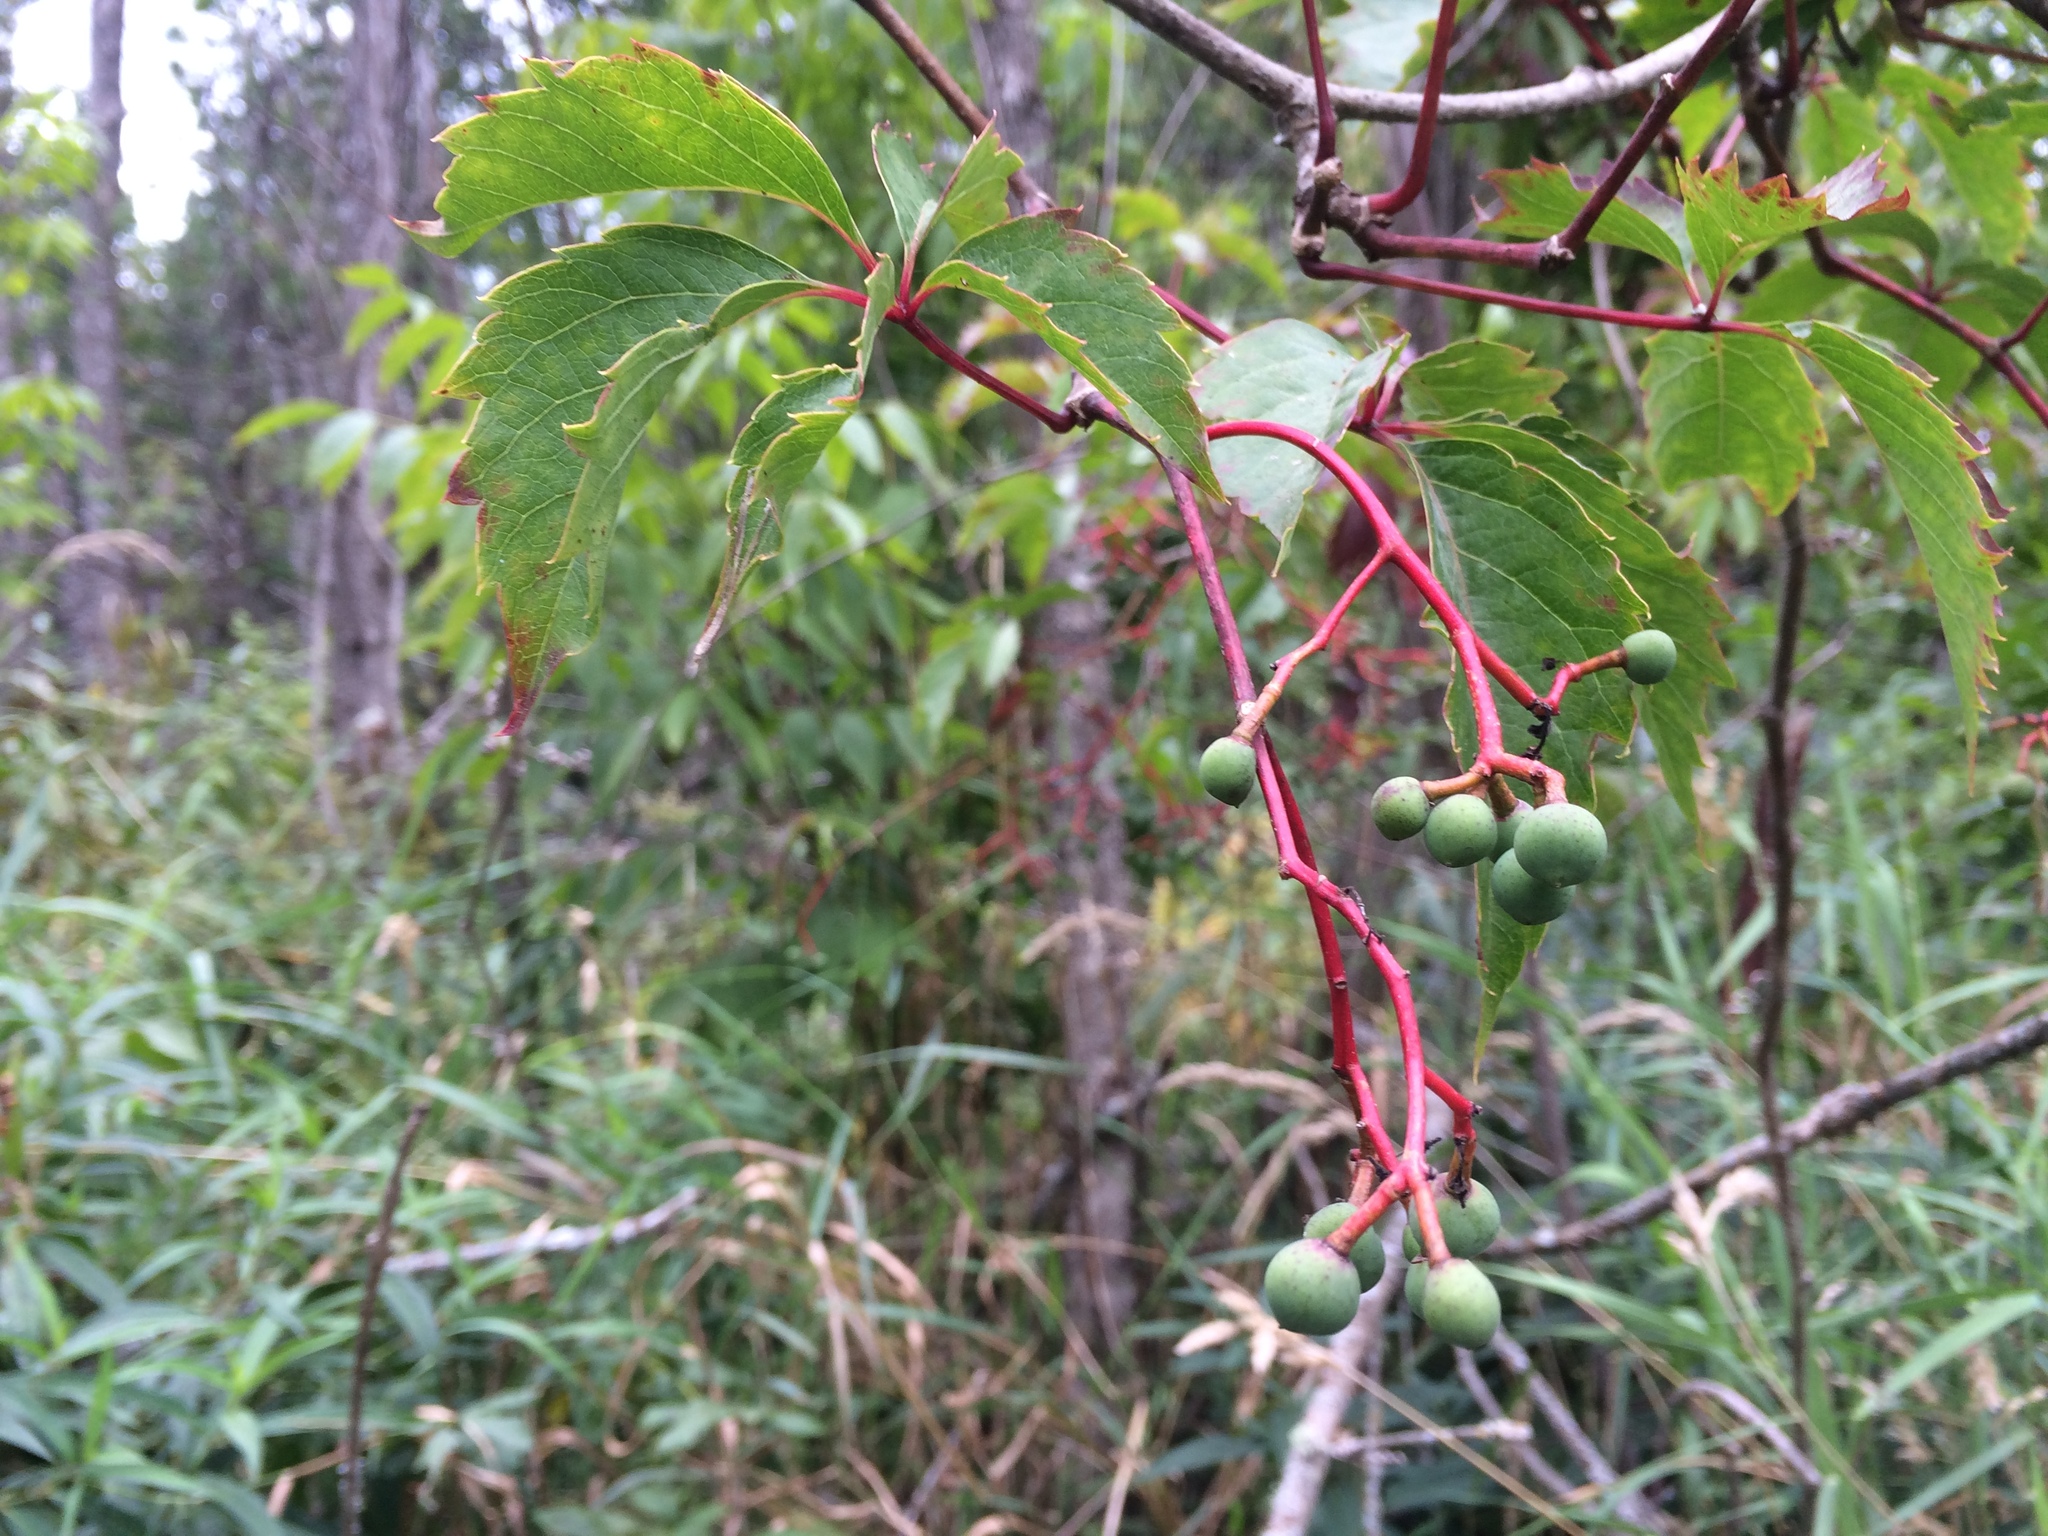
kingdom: Plantae
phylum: Tracheophyta
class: Magnoliopsida
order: Vitales
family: Vitaceae
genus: Parthenocissus
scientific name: Parthenocissus quinquefolia
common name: Virginia-creeper
